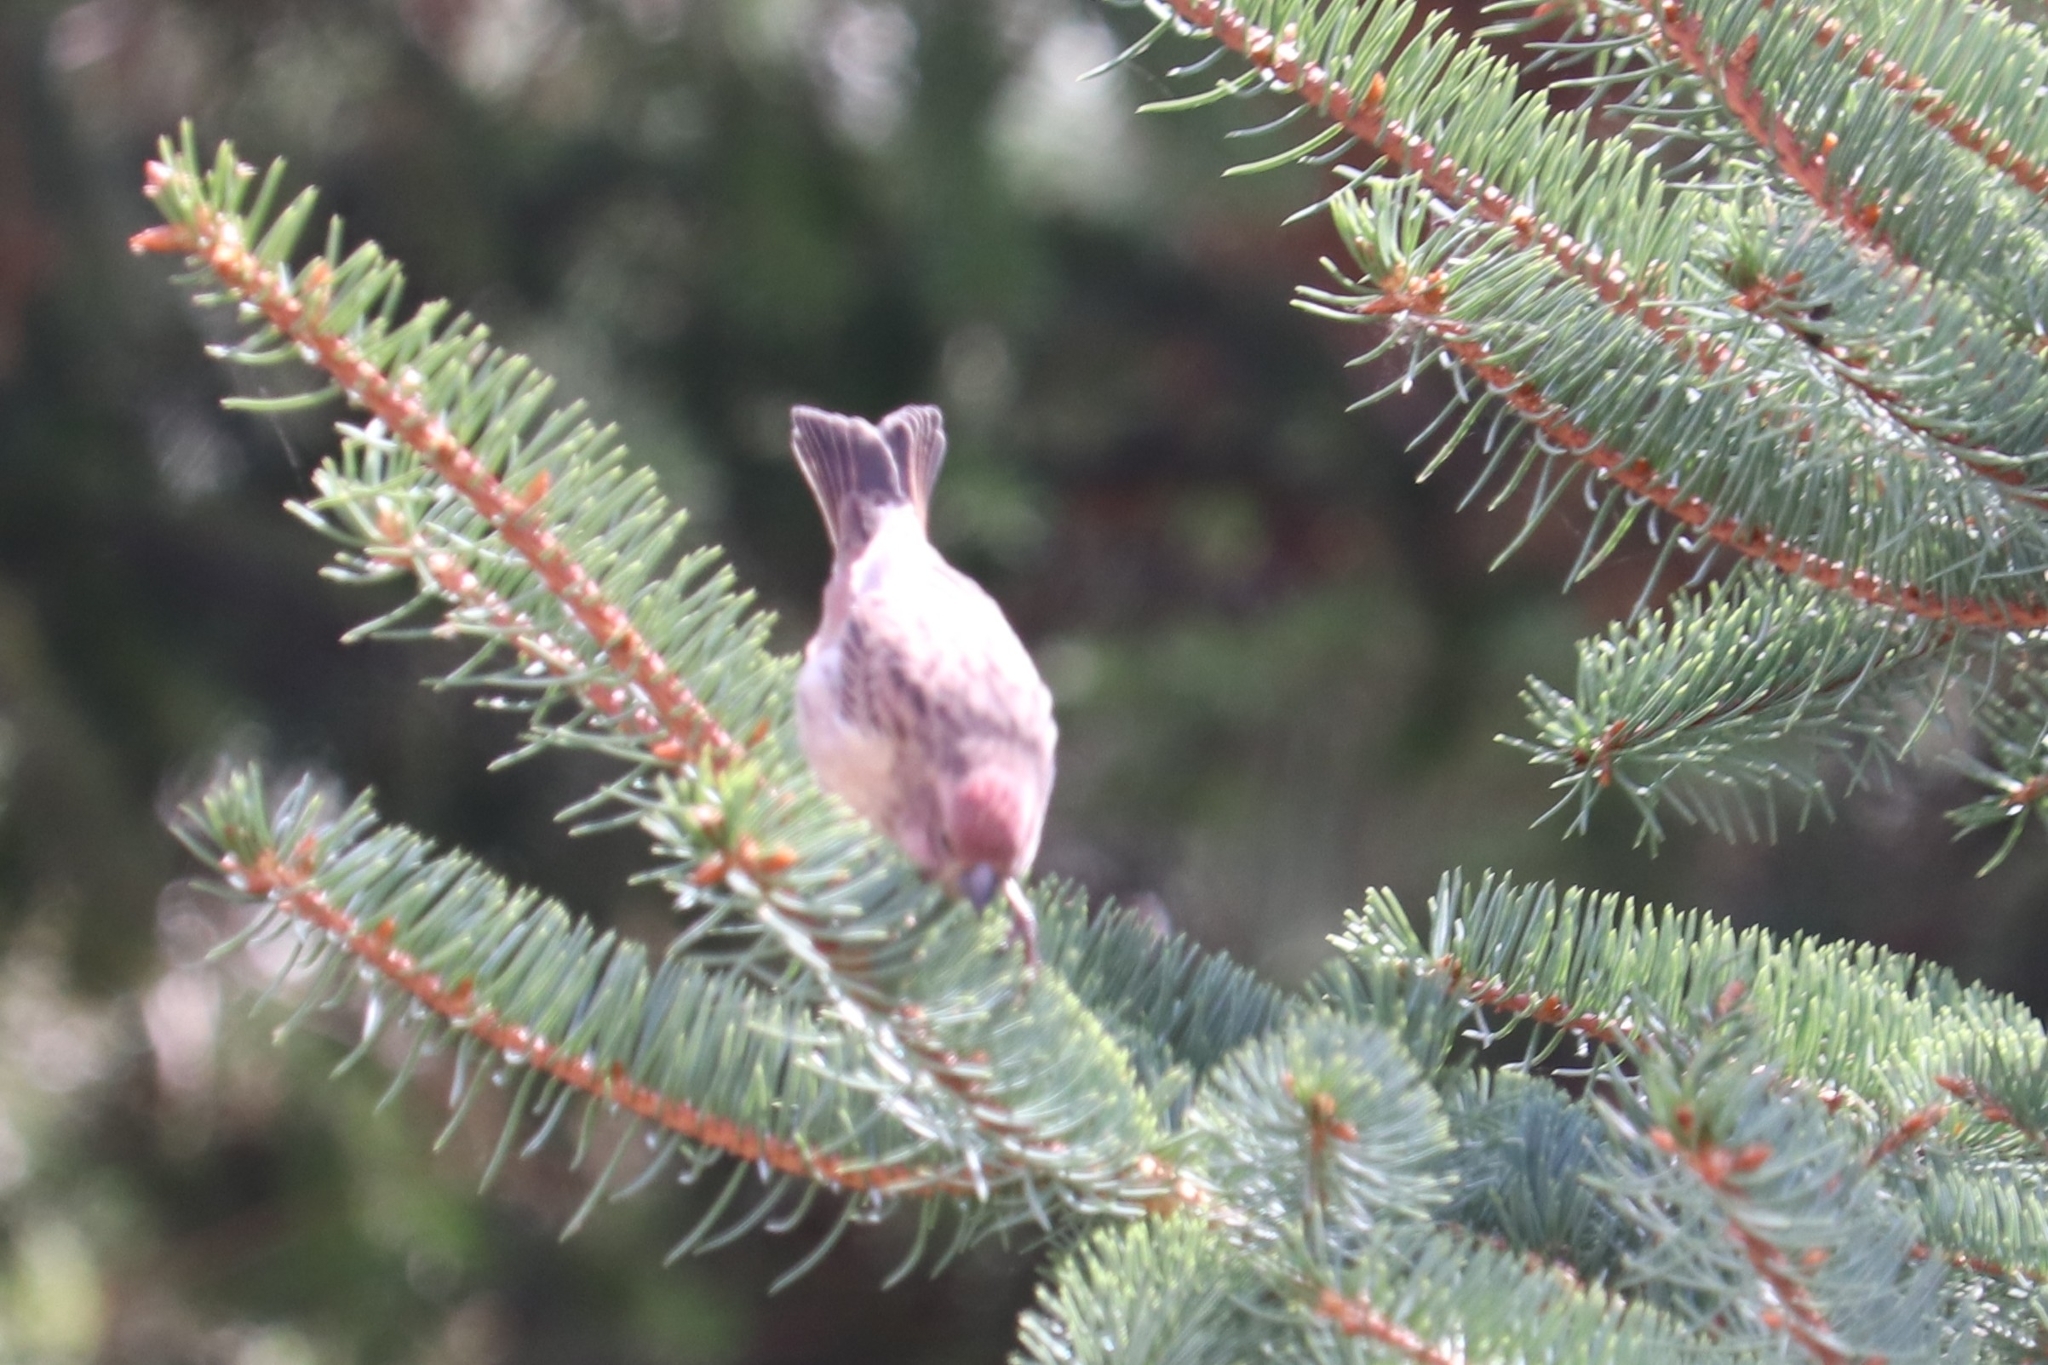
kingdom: Animalia
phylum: Chordata
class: Aves
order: Passeriformes
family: Fringillidae
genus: Haemorhous
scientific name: Haemorhous cassinii
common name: Cassin's finch
